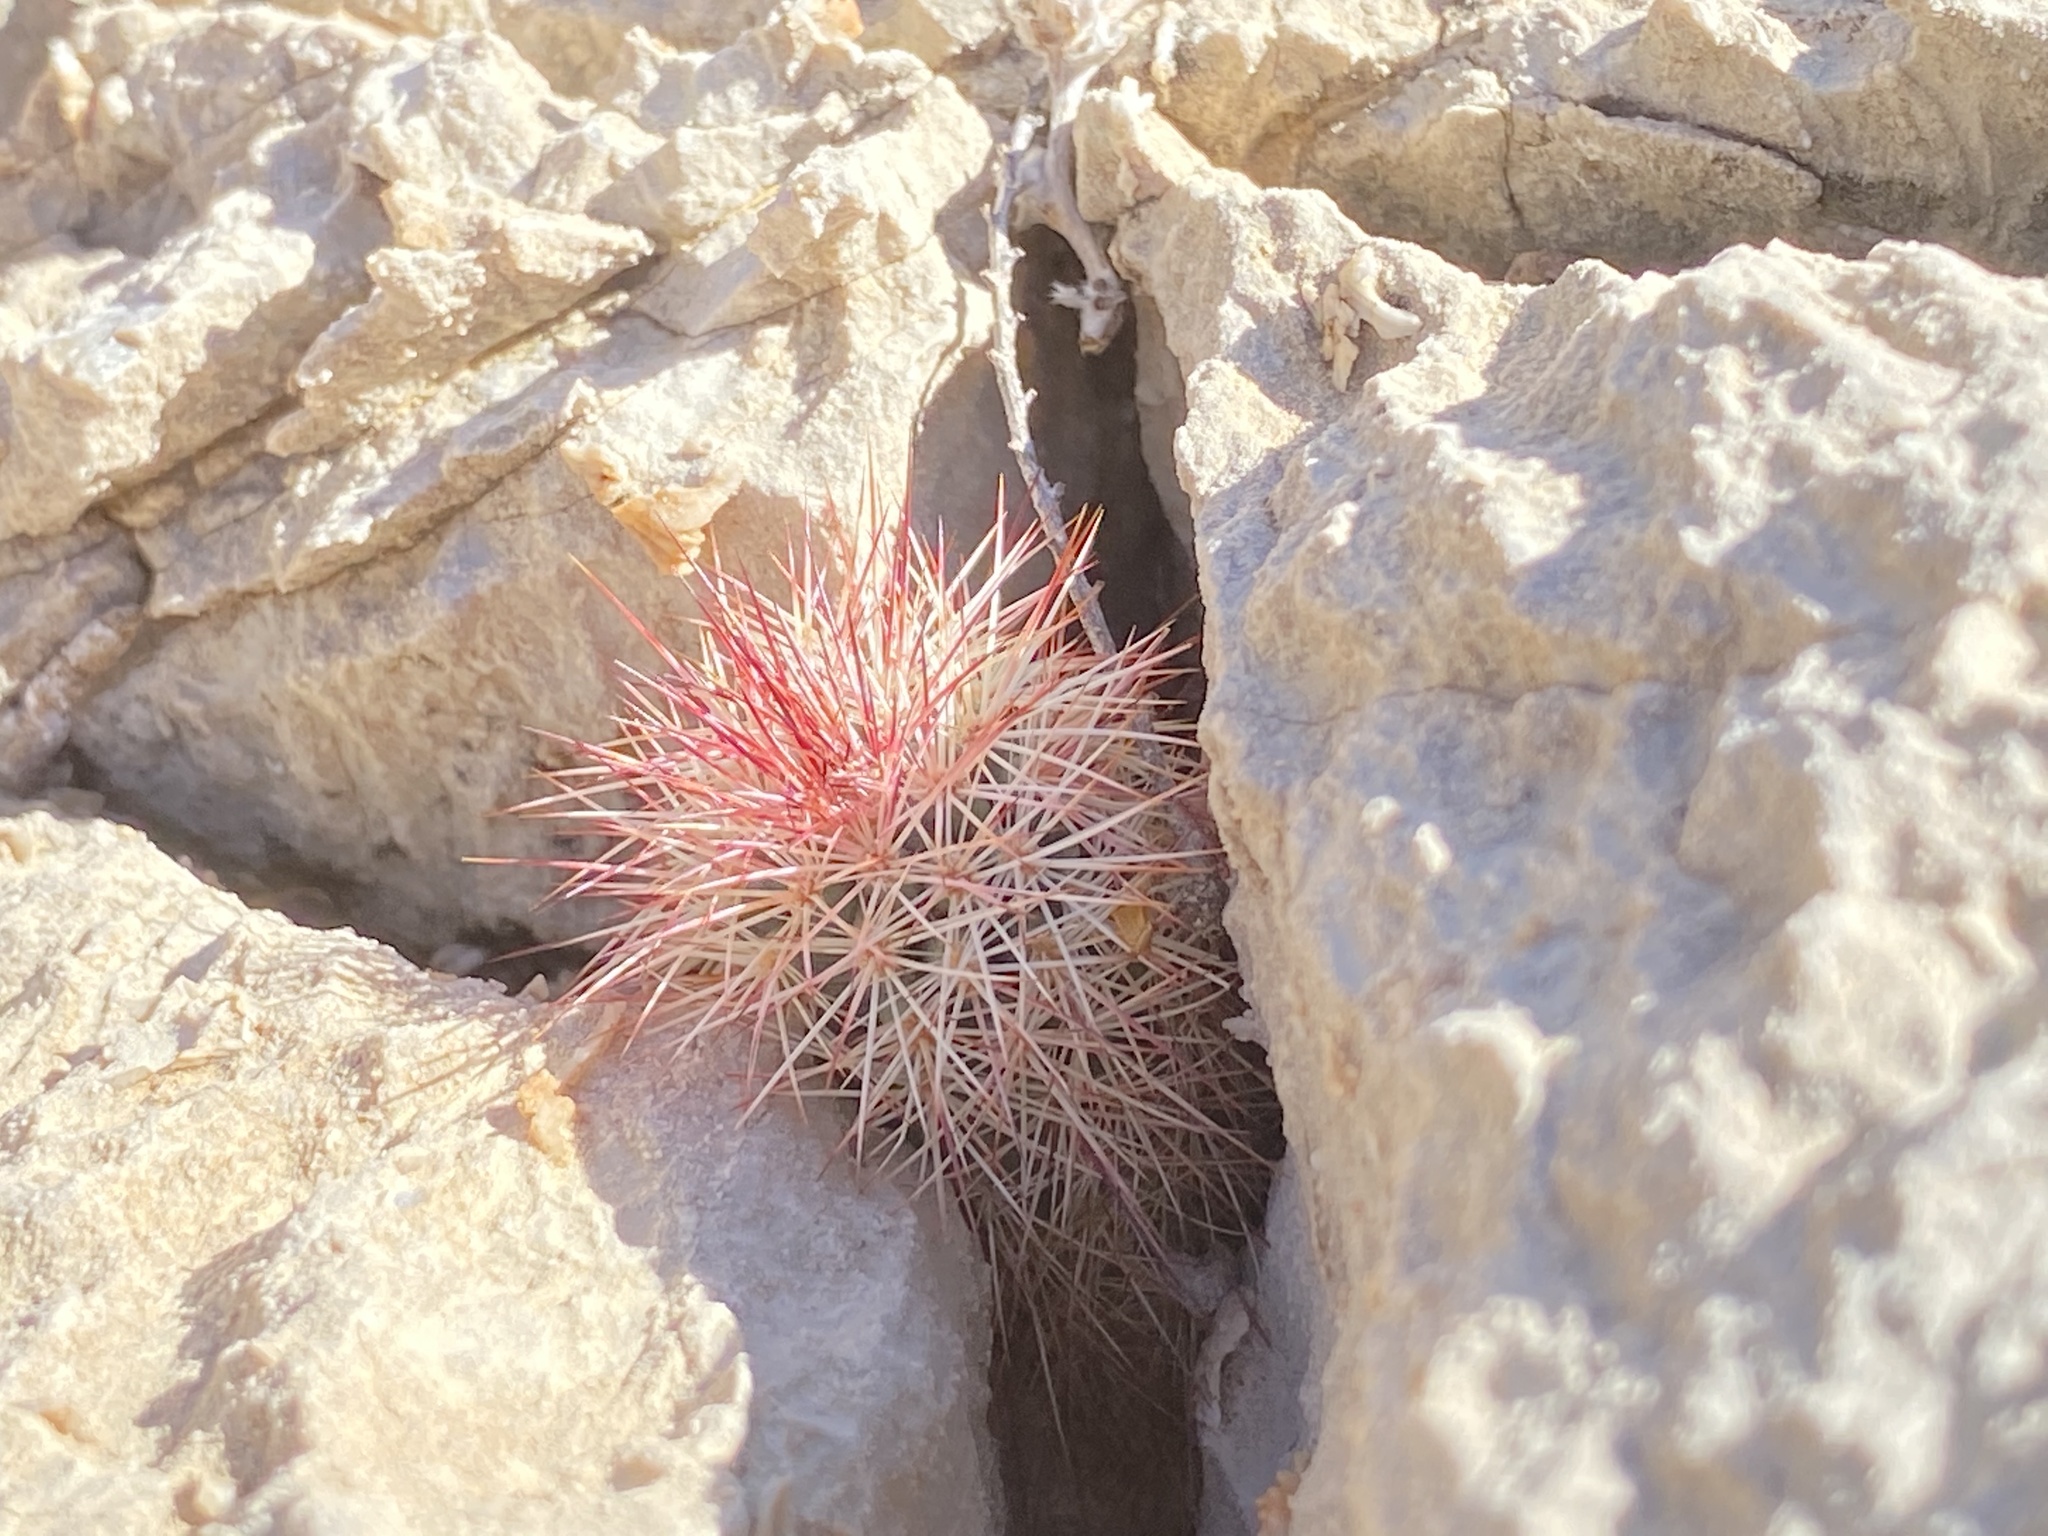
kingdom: Plantae
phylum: Tracheophyta
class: Magnoliopsida
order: Caryophyllales
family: Cactaceae
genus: Echinocereus
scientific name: Echinocereus dasyacanthus
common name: Spiny hedgehog cactus
